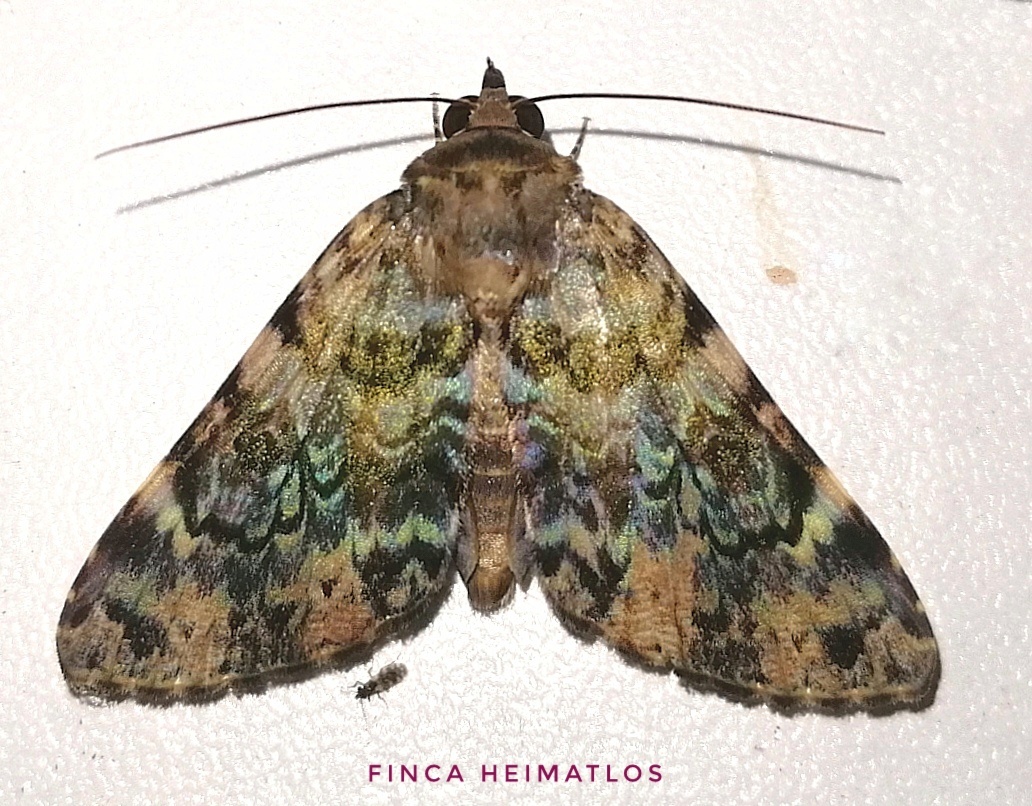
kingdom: Animalia
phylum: Arthropoda
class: Insecta
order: Lepidoptera
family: Erebidae
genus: Acolasis
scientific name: Acolasis Coenipeta aniloba
